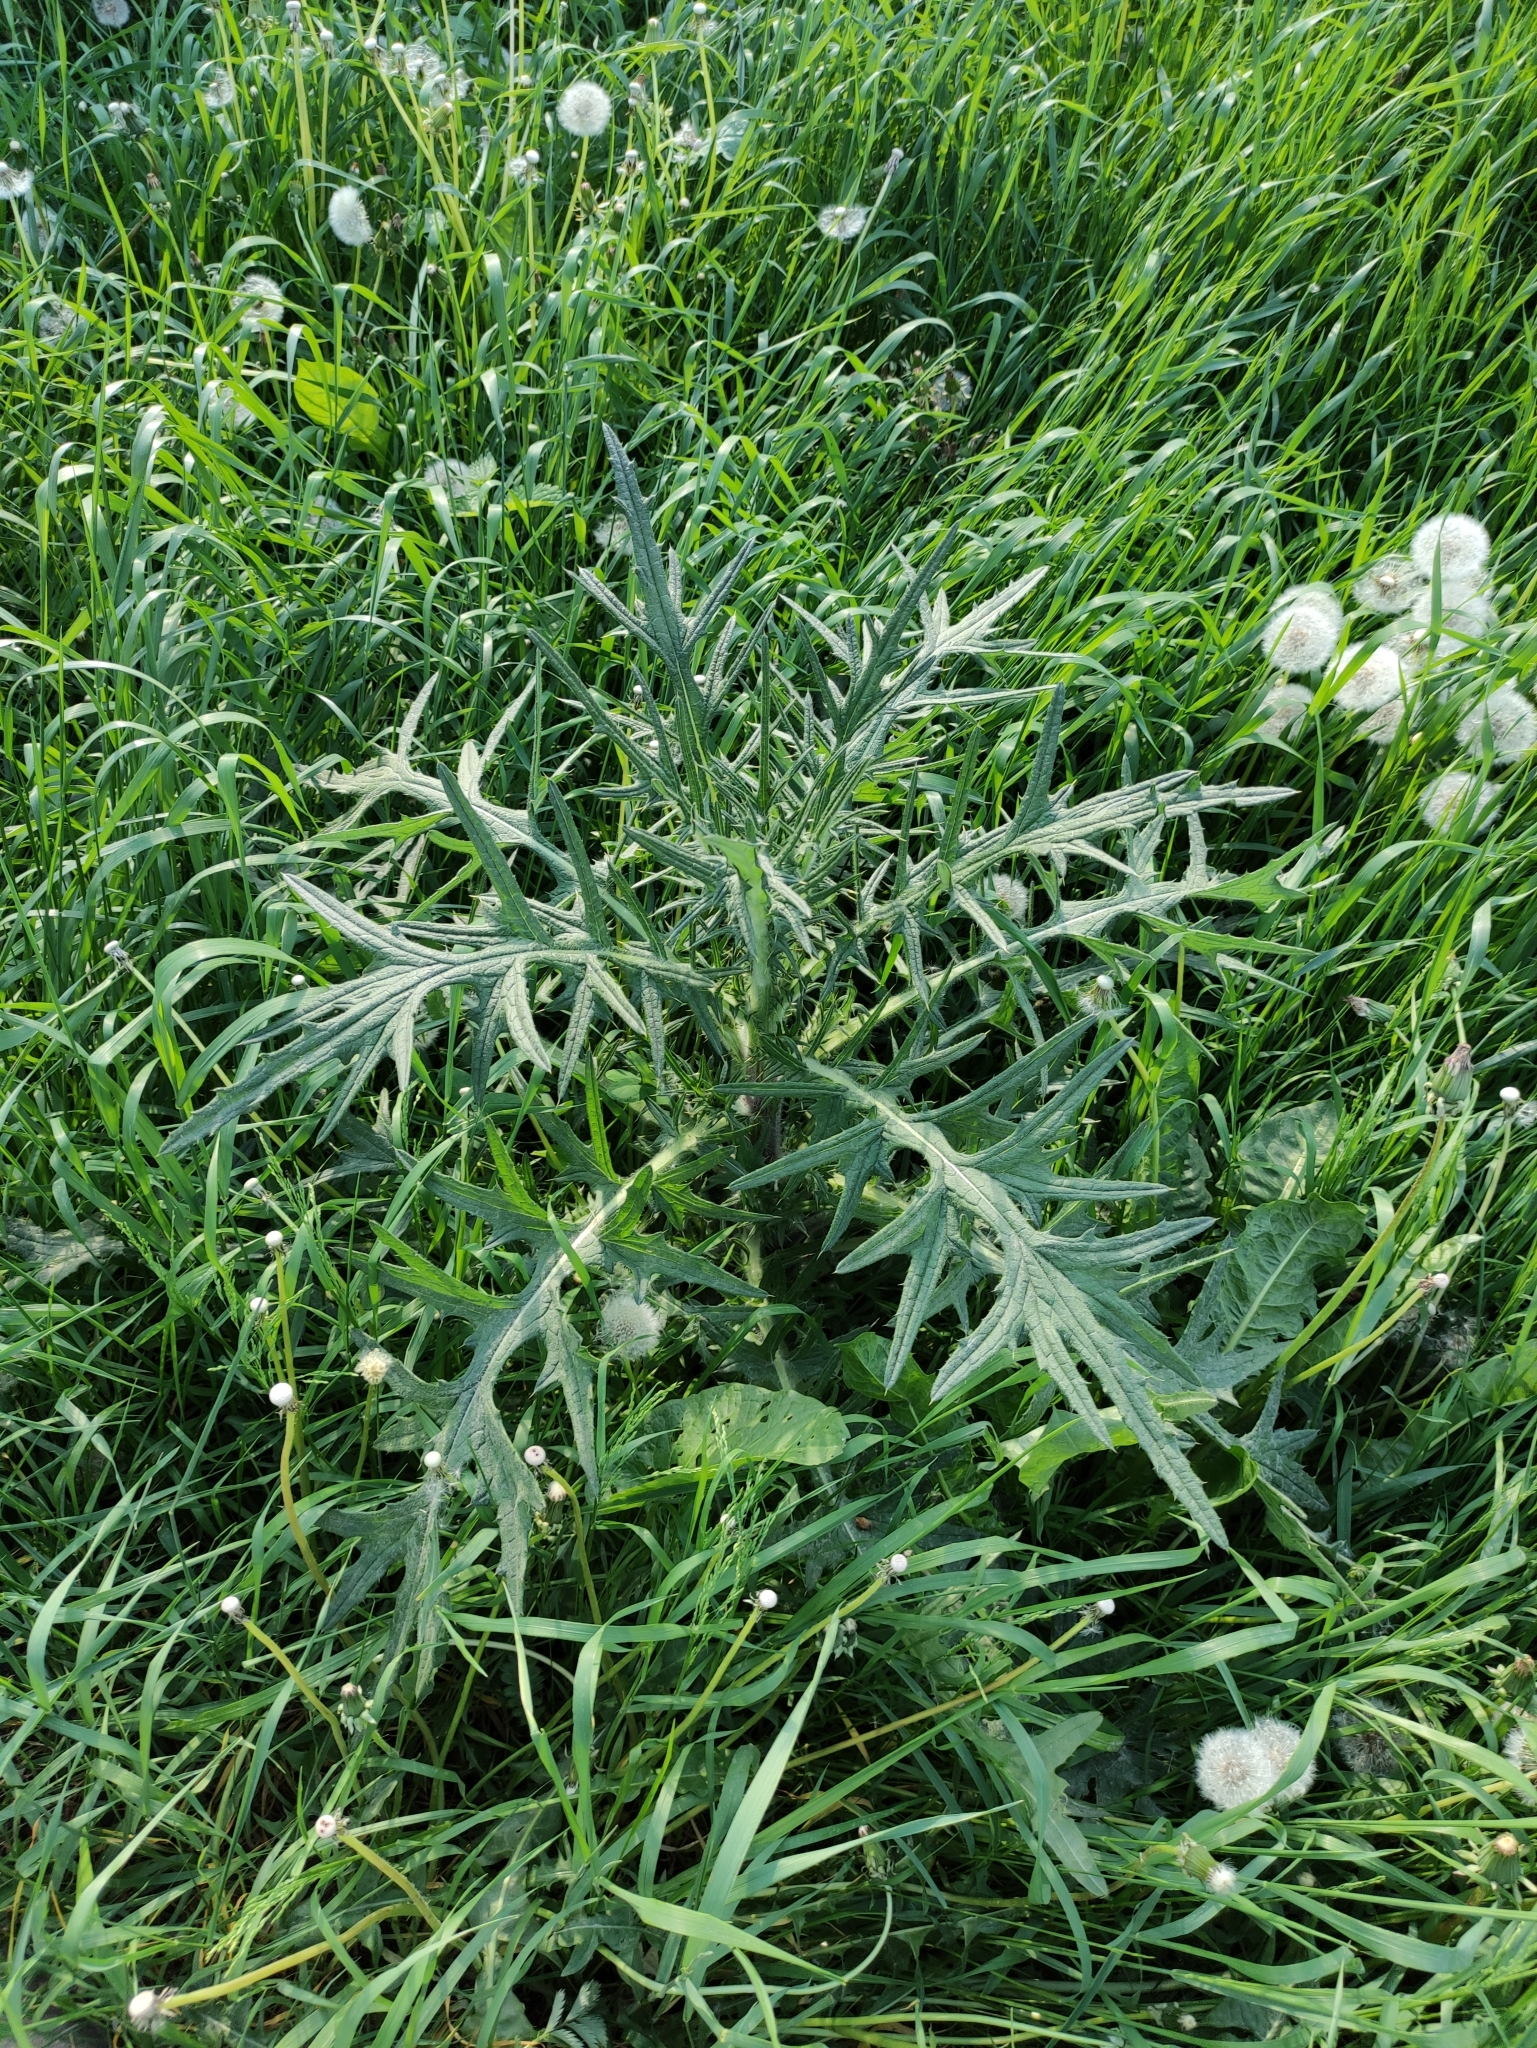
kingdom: Plantae
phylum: Tracheophyta
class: Magnoliopsida
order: Asterales
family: Asteraceae
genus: Cirsium
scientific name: Cirsium vulgare
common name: Bull thistle
